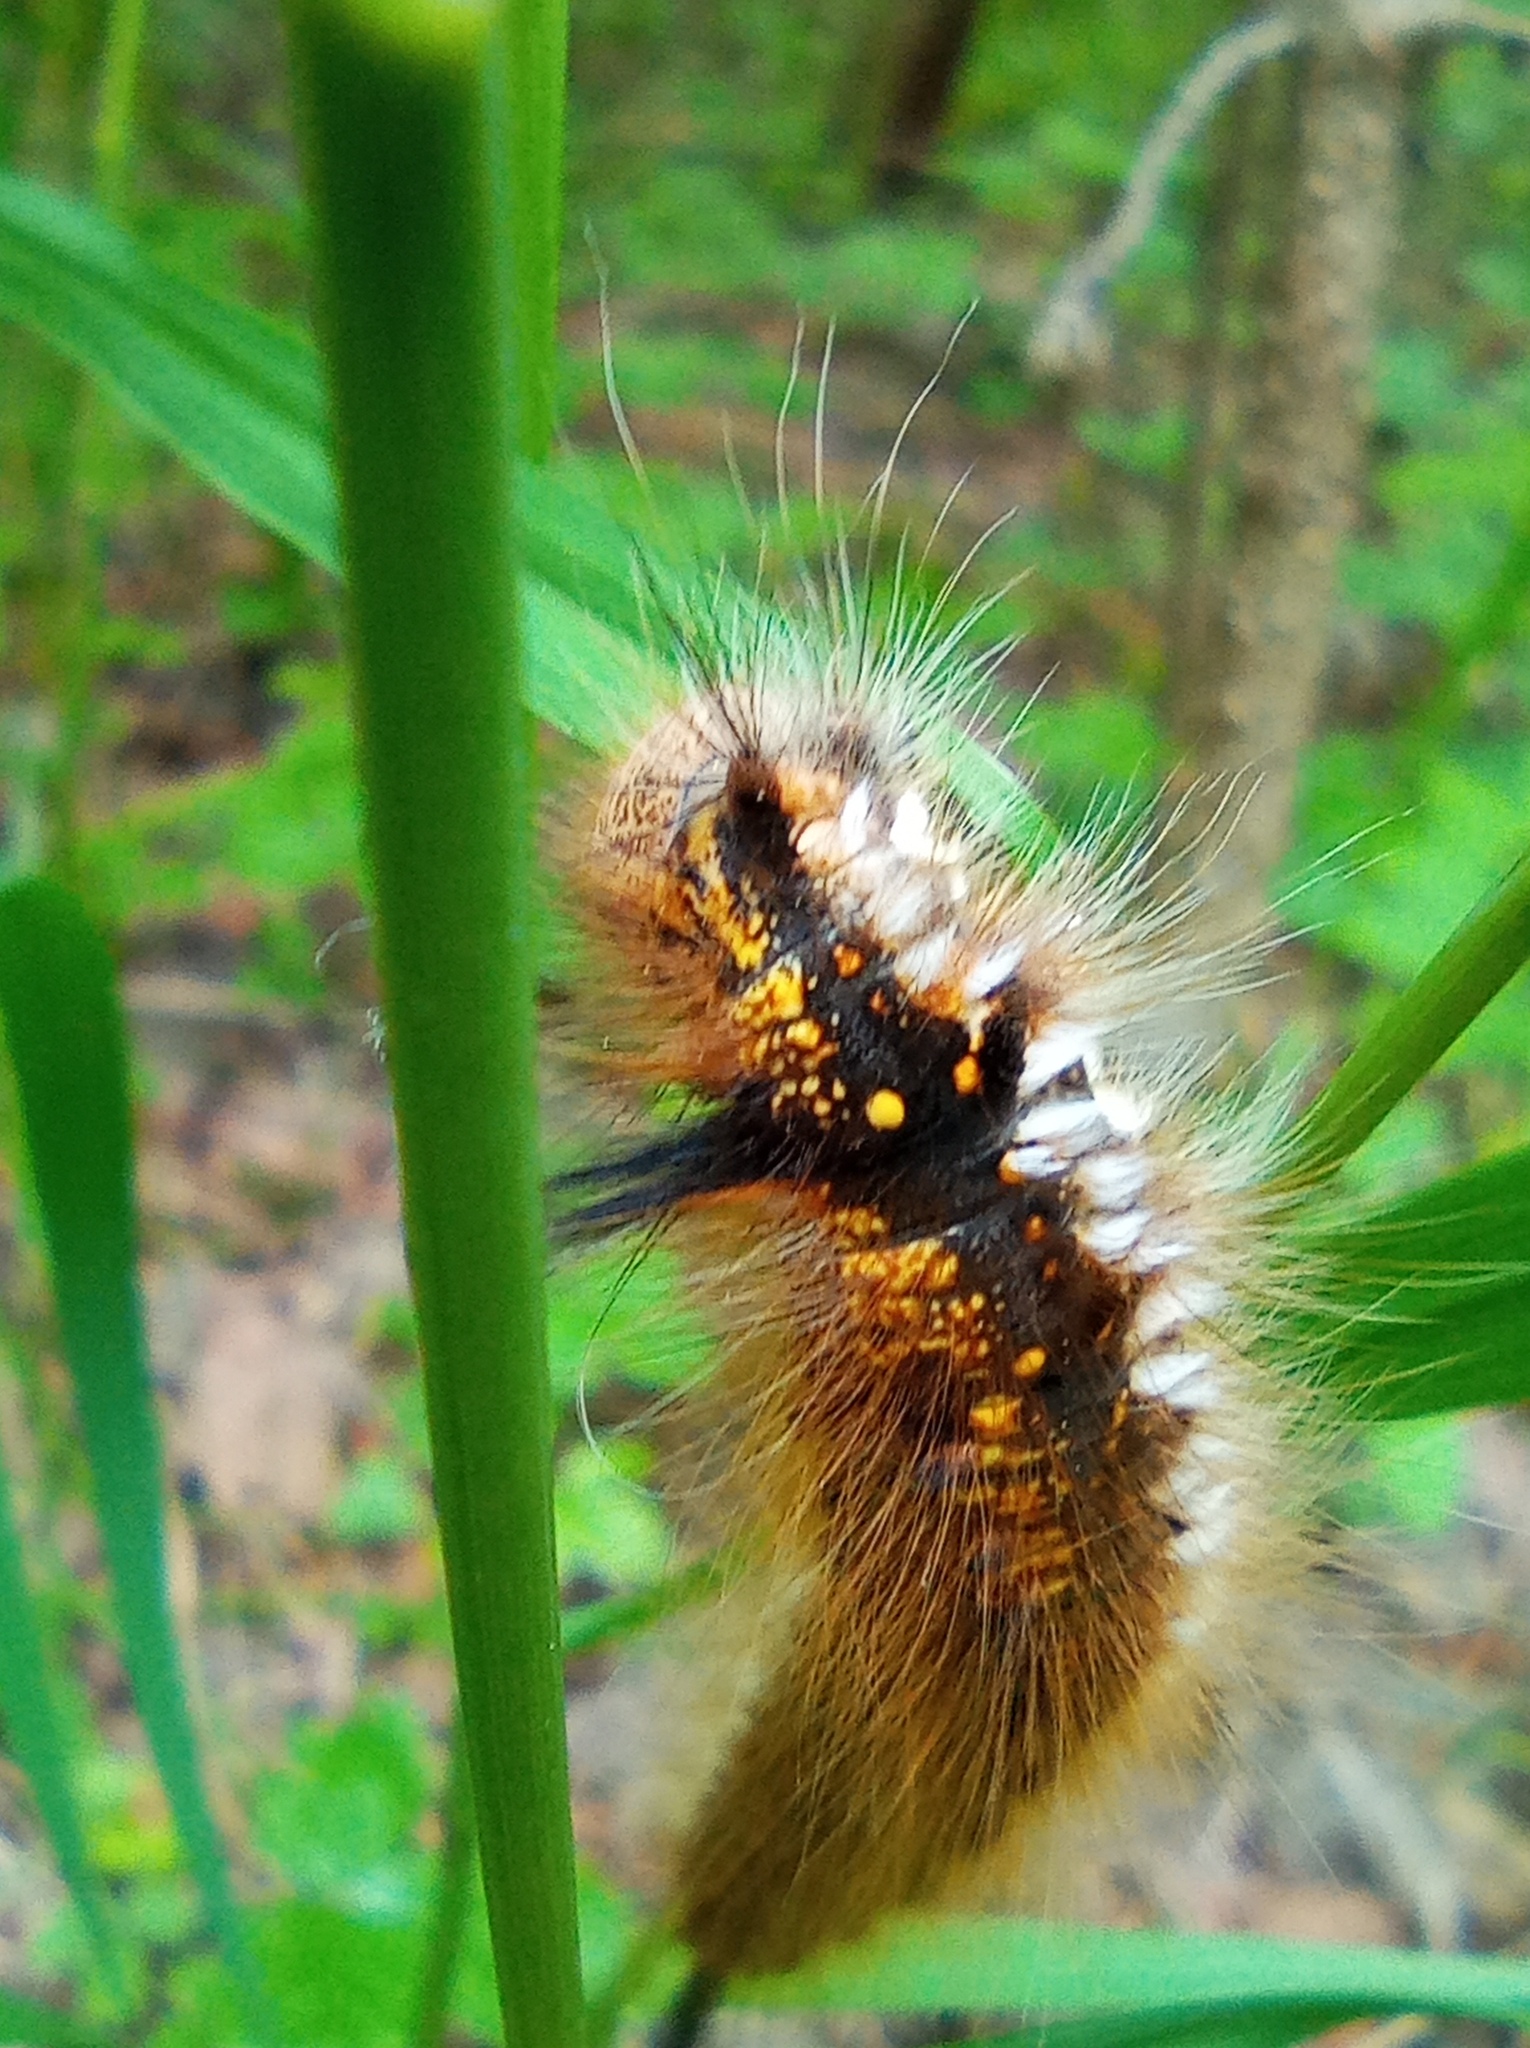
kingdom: Animalia
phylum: Arthropoda
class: Insecta
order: Lepidoptera
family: Lasiocampidae
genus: Euthrix
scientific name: Euthrix potatoria
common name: Drinker
